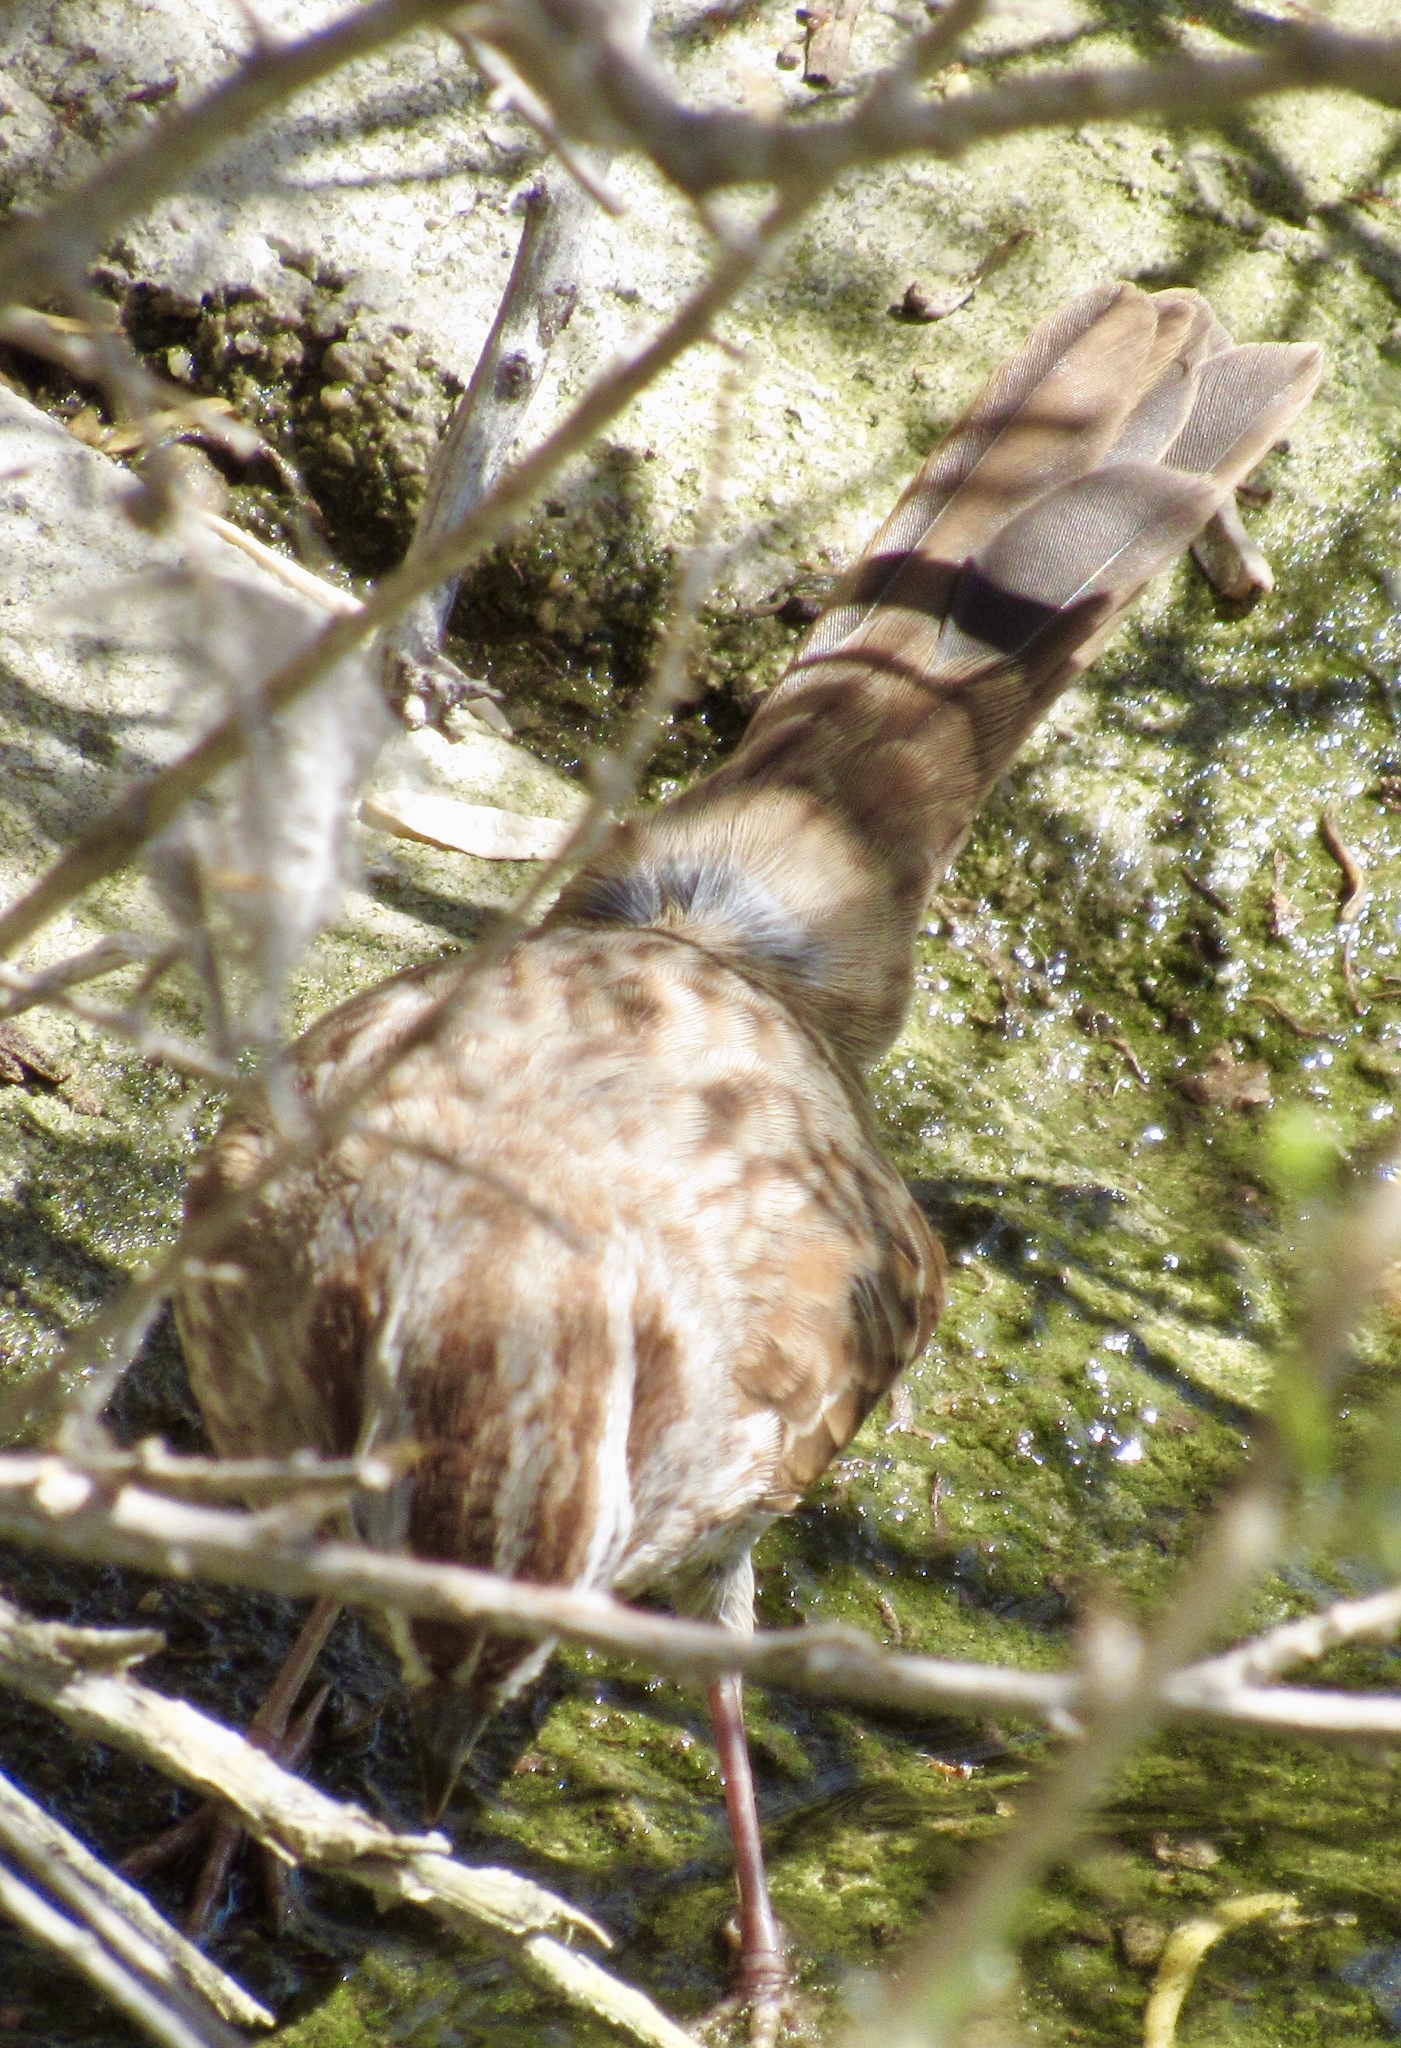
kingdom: Animalia
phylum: Chordata
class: Aves
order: Passeriformes
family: Passerellidae
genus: Melospiza
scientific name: Melospiza melodia
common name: Song sparrow
